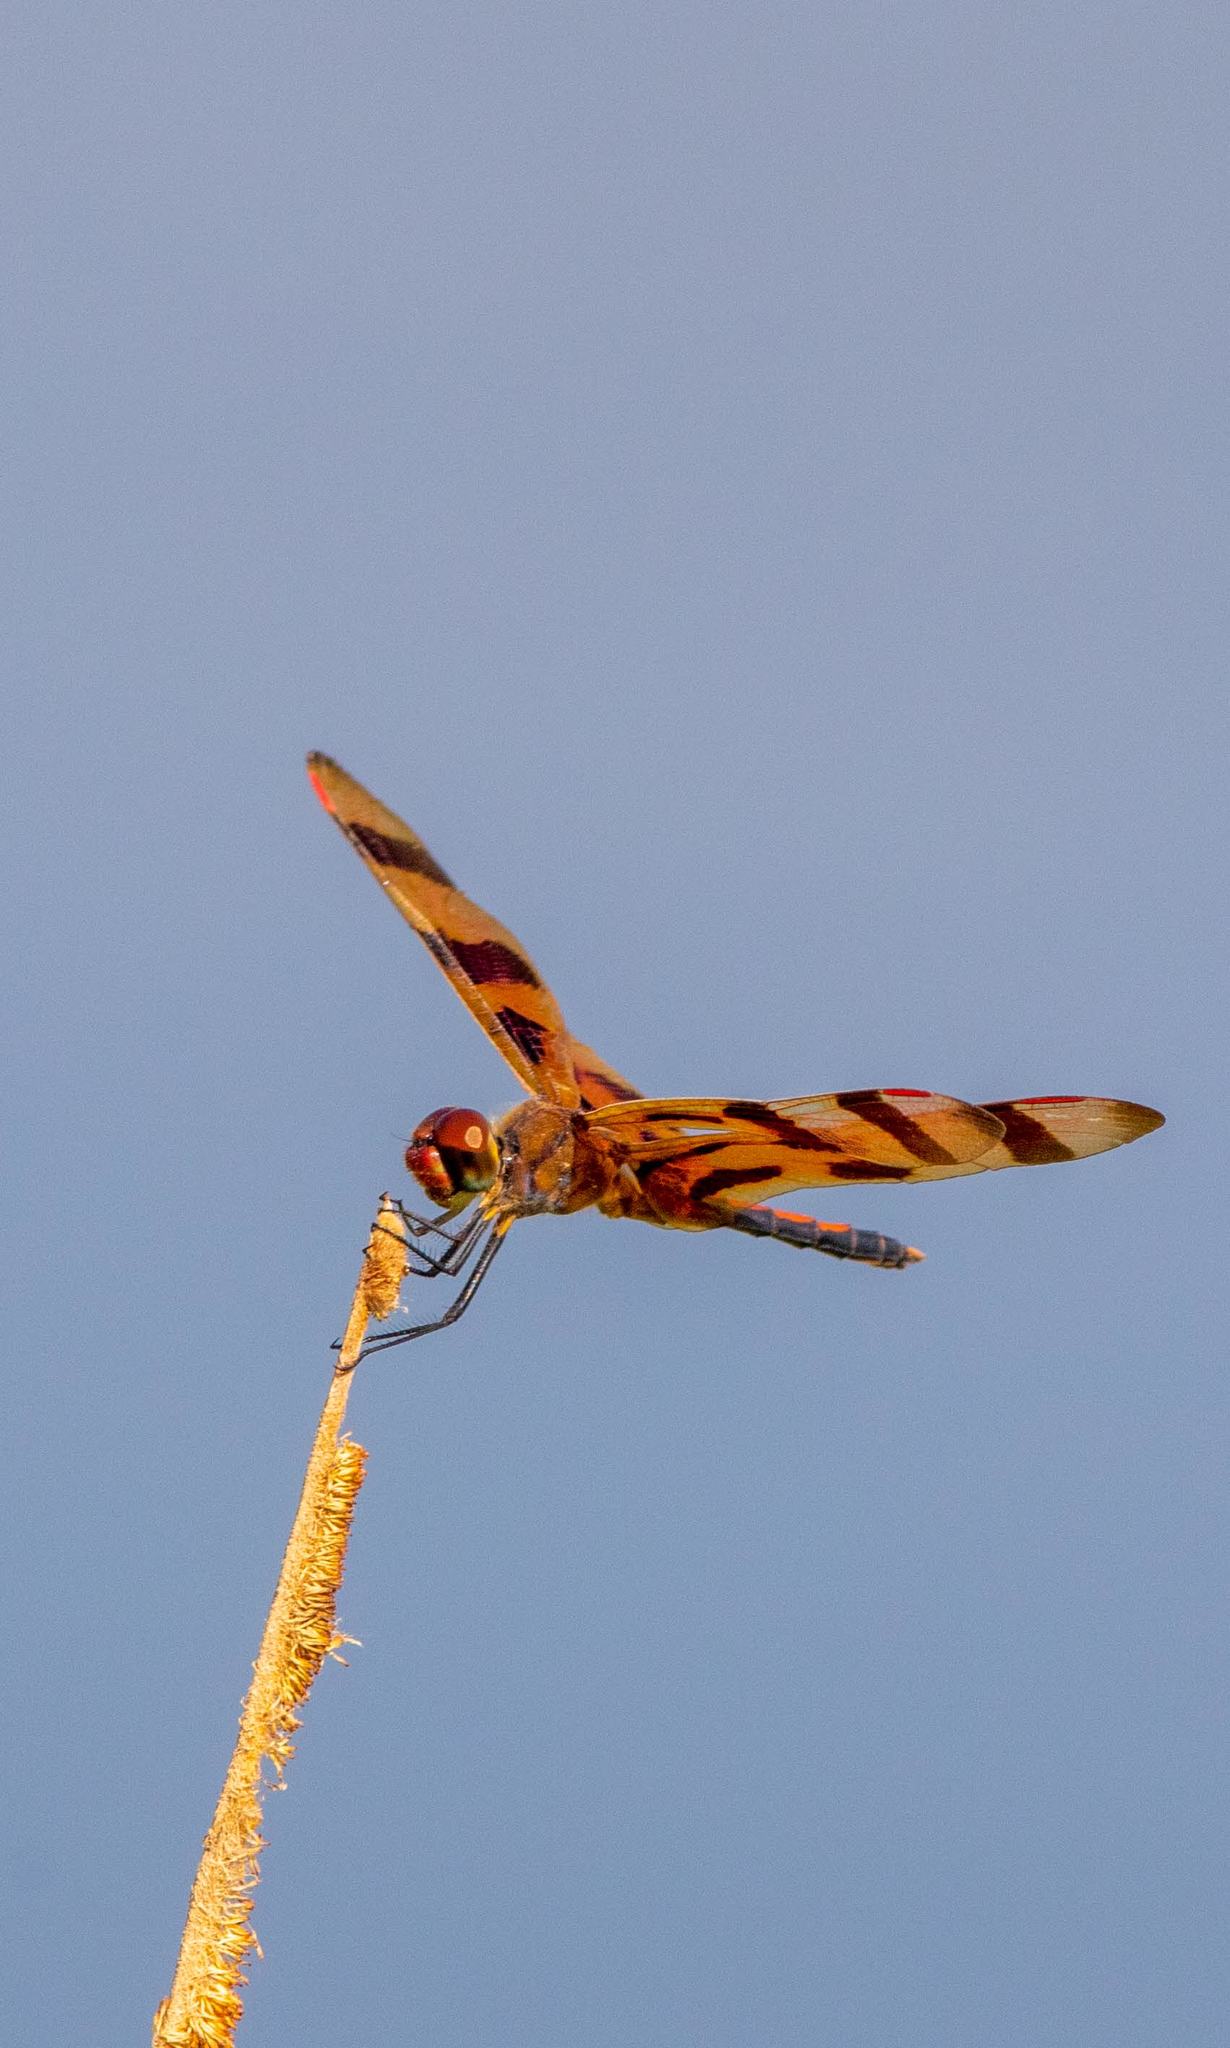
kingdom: Animalia
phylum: Arthropoda
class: Insecta
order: Odonata
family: Libellulidae
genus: Celithemis
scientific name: Celithemis eponina
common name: Halloween pennant
